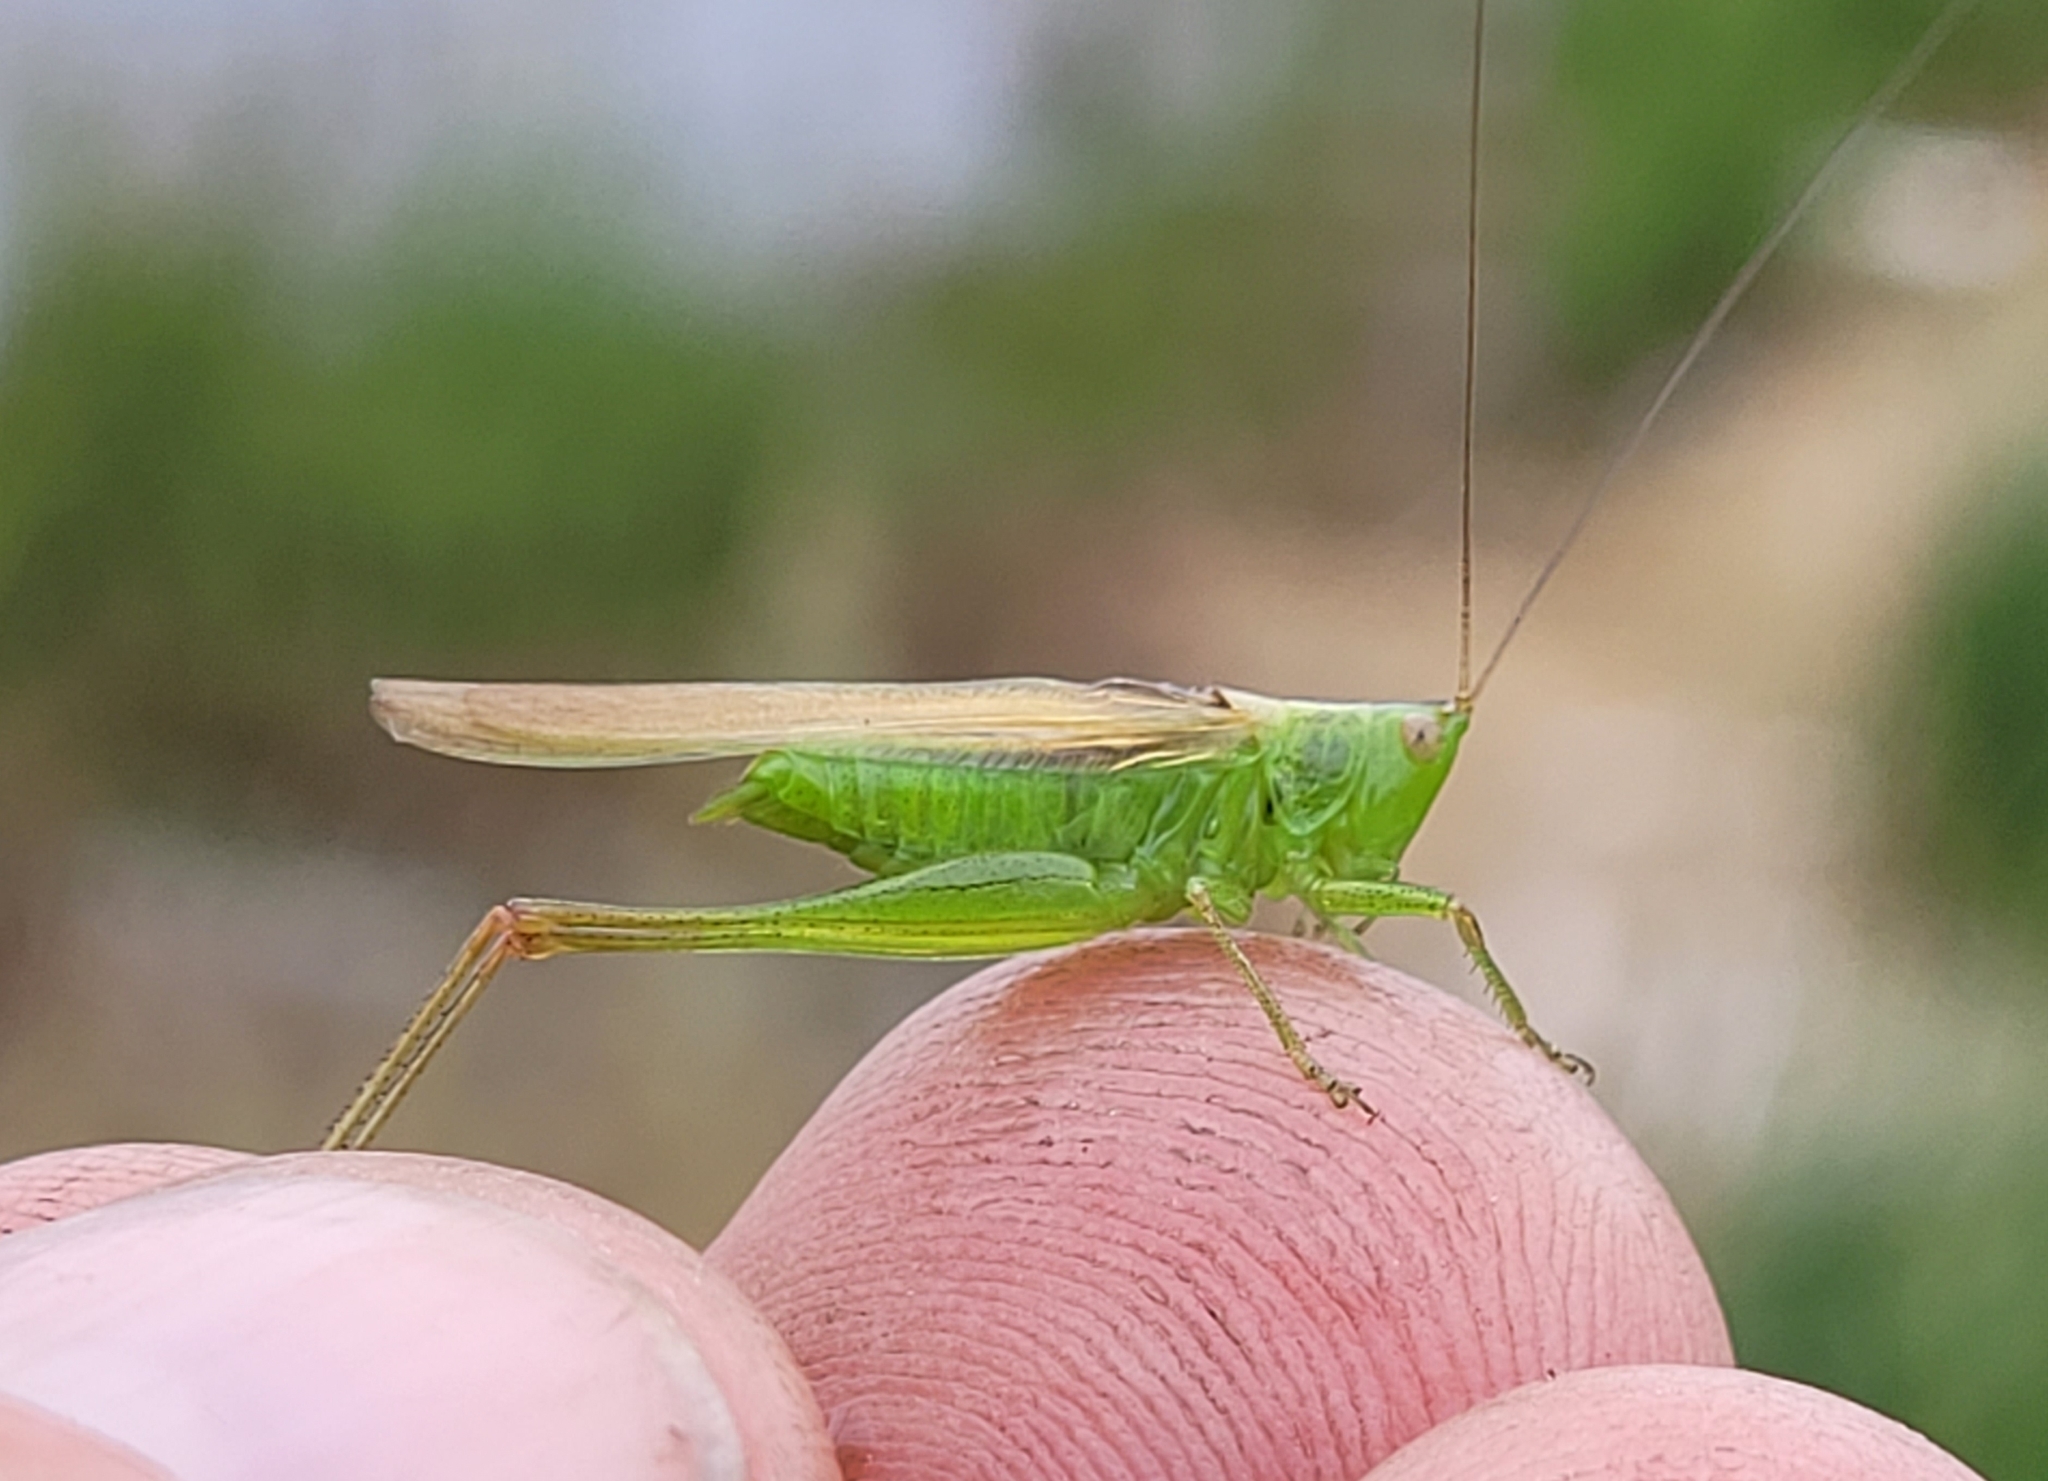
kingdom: Animalia
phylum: Arthropoda
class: Insecta
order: Orthoptera
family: Tettigoniidae
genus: Conocephalus
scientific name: Conocephalus fasciatus
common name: Slender meadow katydid
